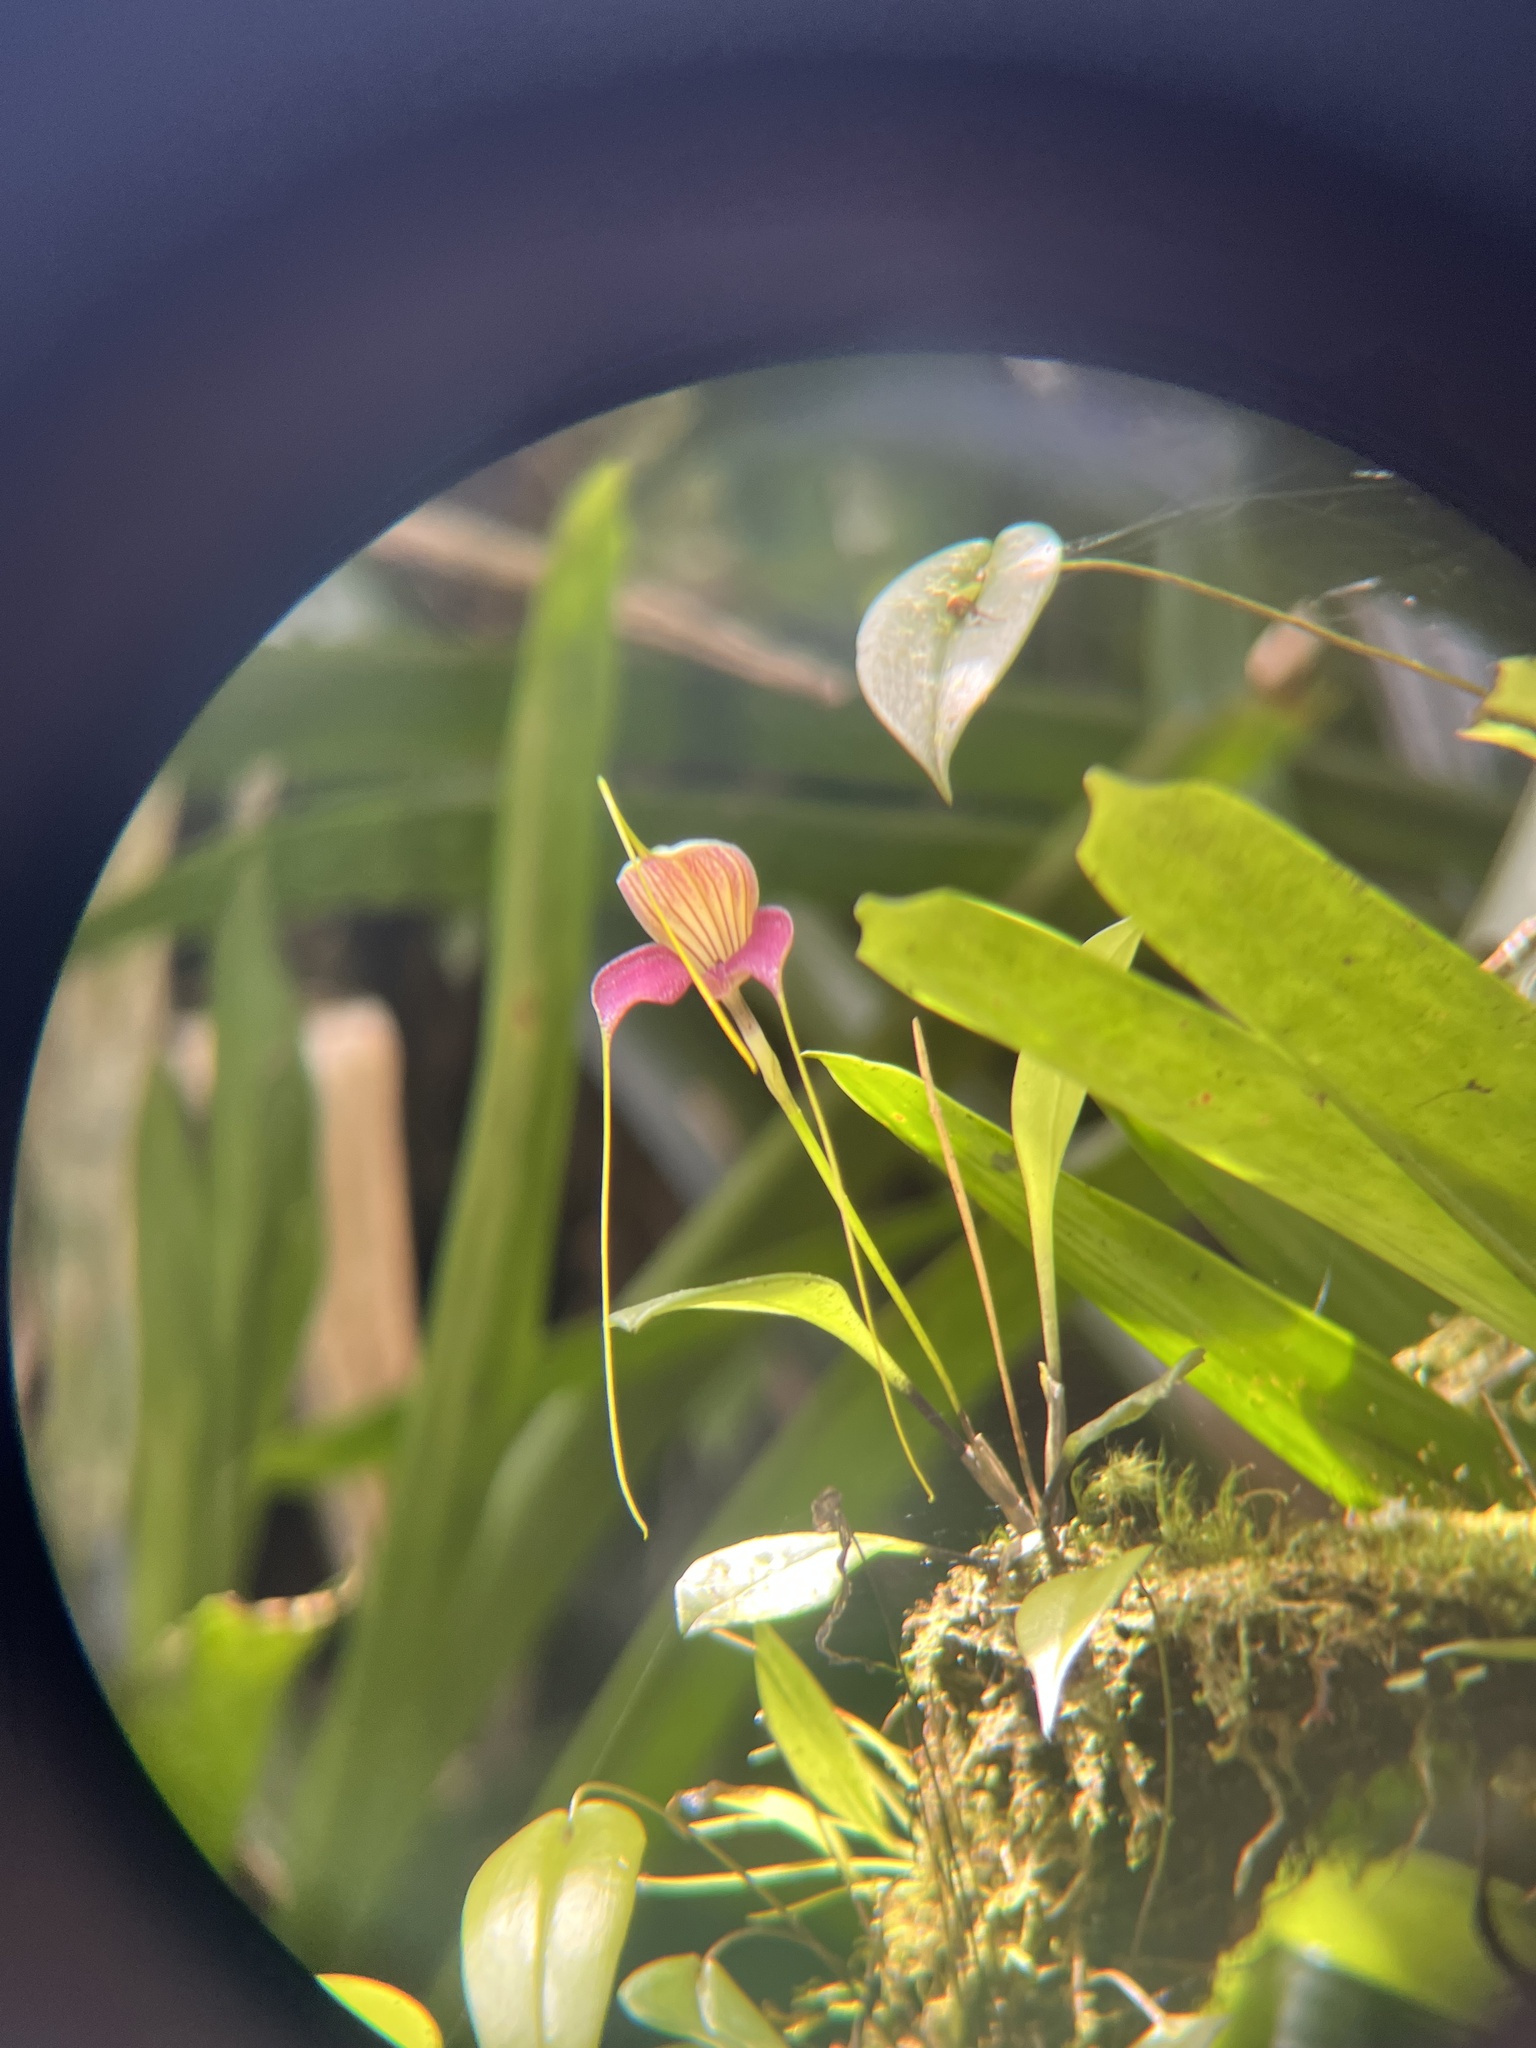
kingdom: Plantae
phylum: Tracheophyta
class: Liliopsida
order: Asparagales
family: Orchidaceae
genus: Masdevallia
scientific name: Masdevallia caudata
